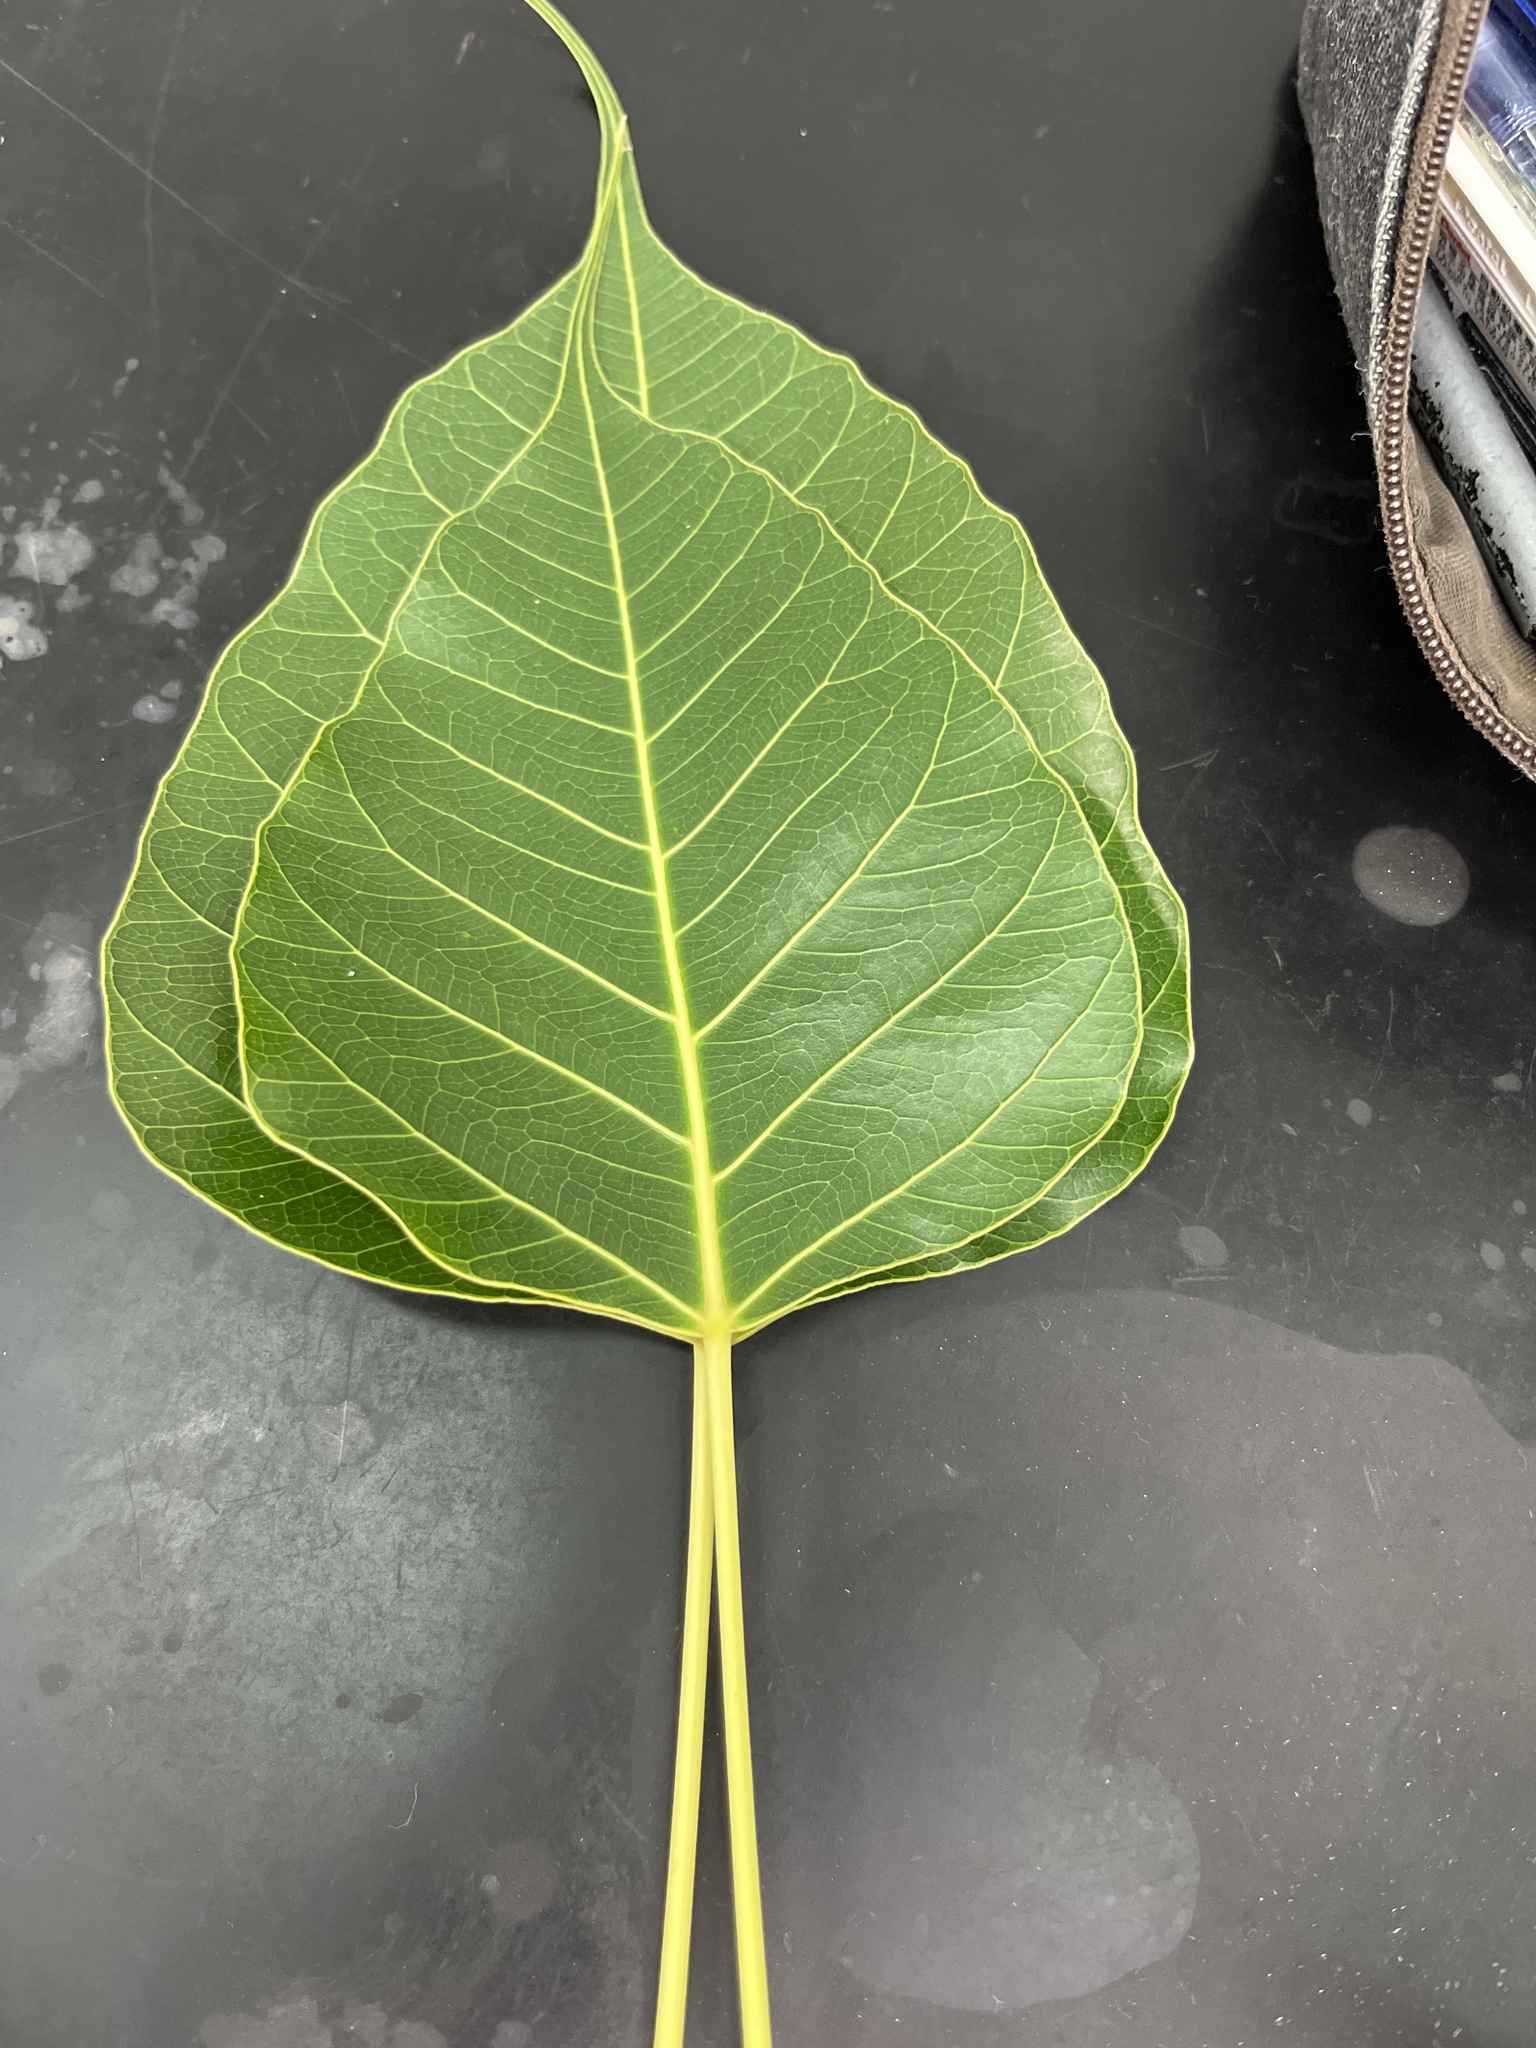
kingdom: Plantae
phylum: Tracheophyta
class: Magnoliopsida
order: Rosales
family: Moraceae
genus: Ficus
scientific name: Ficus religiosa
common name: Bodhi tree
